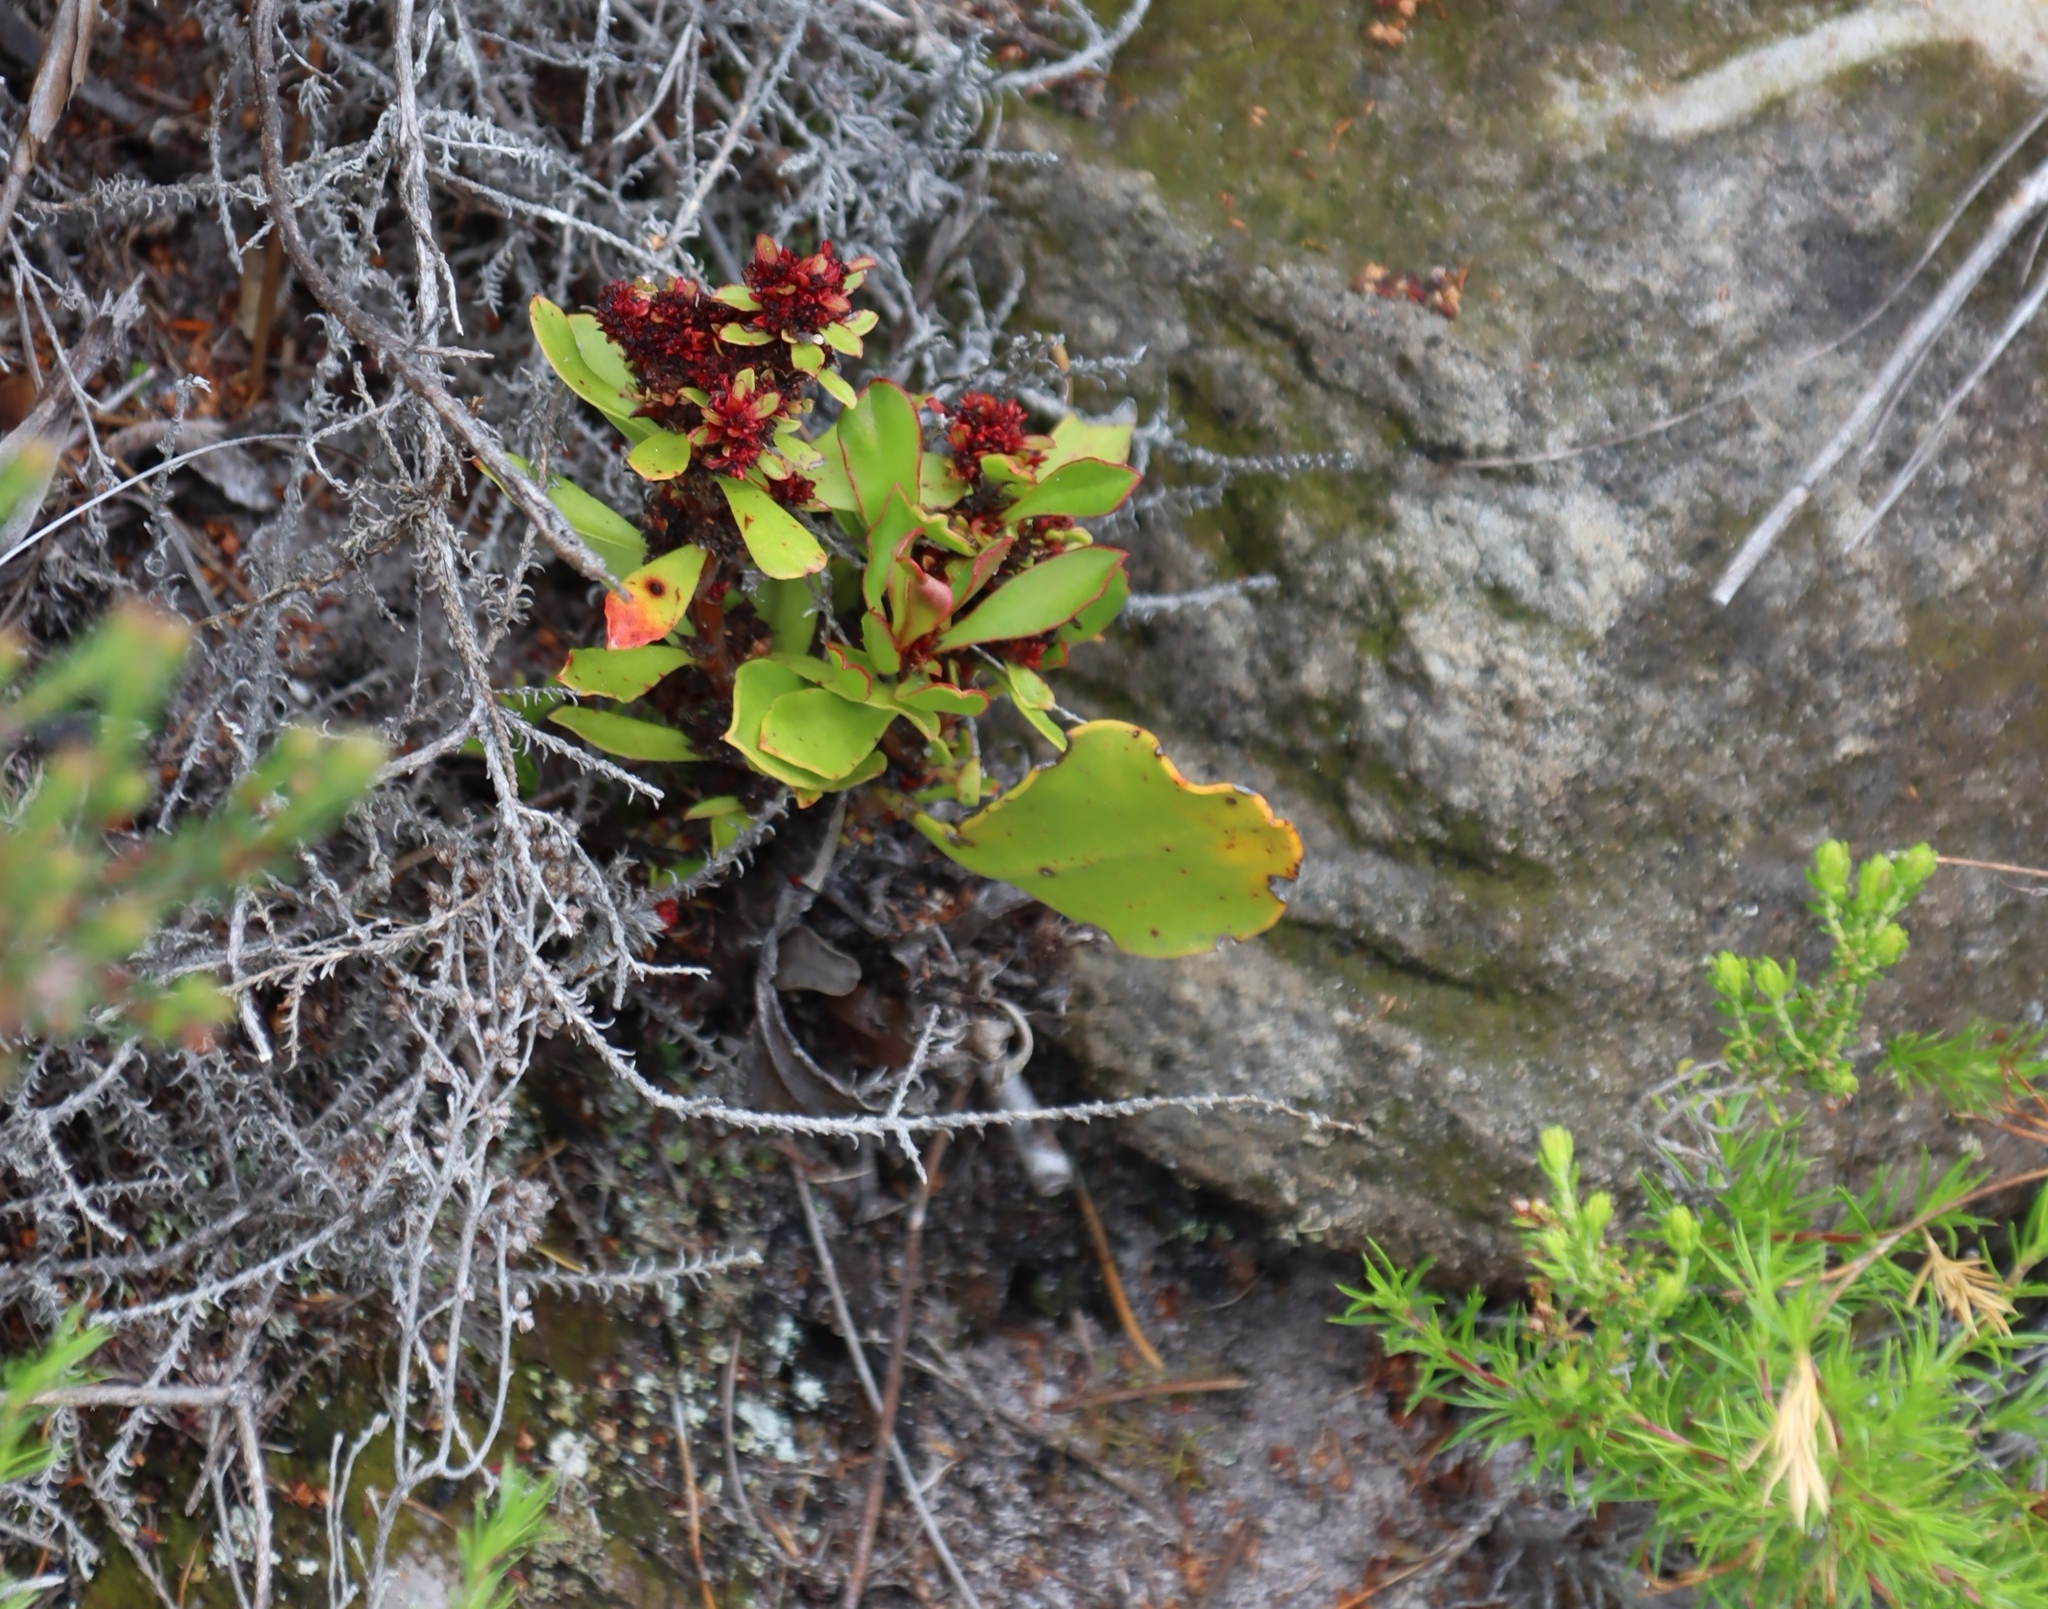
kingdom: Bacteria
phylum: Firmicutes
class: Bacilli
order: Acholeplasmatales
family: Acholeplasmataceae
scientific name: Acholeplasmataceae
